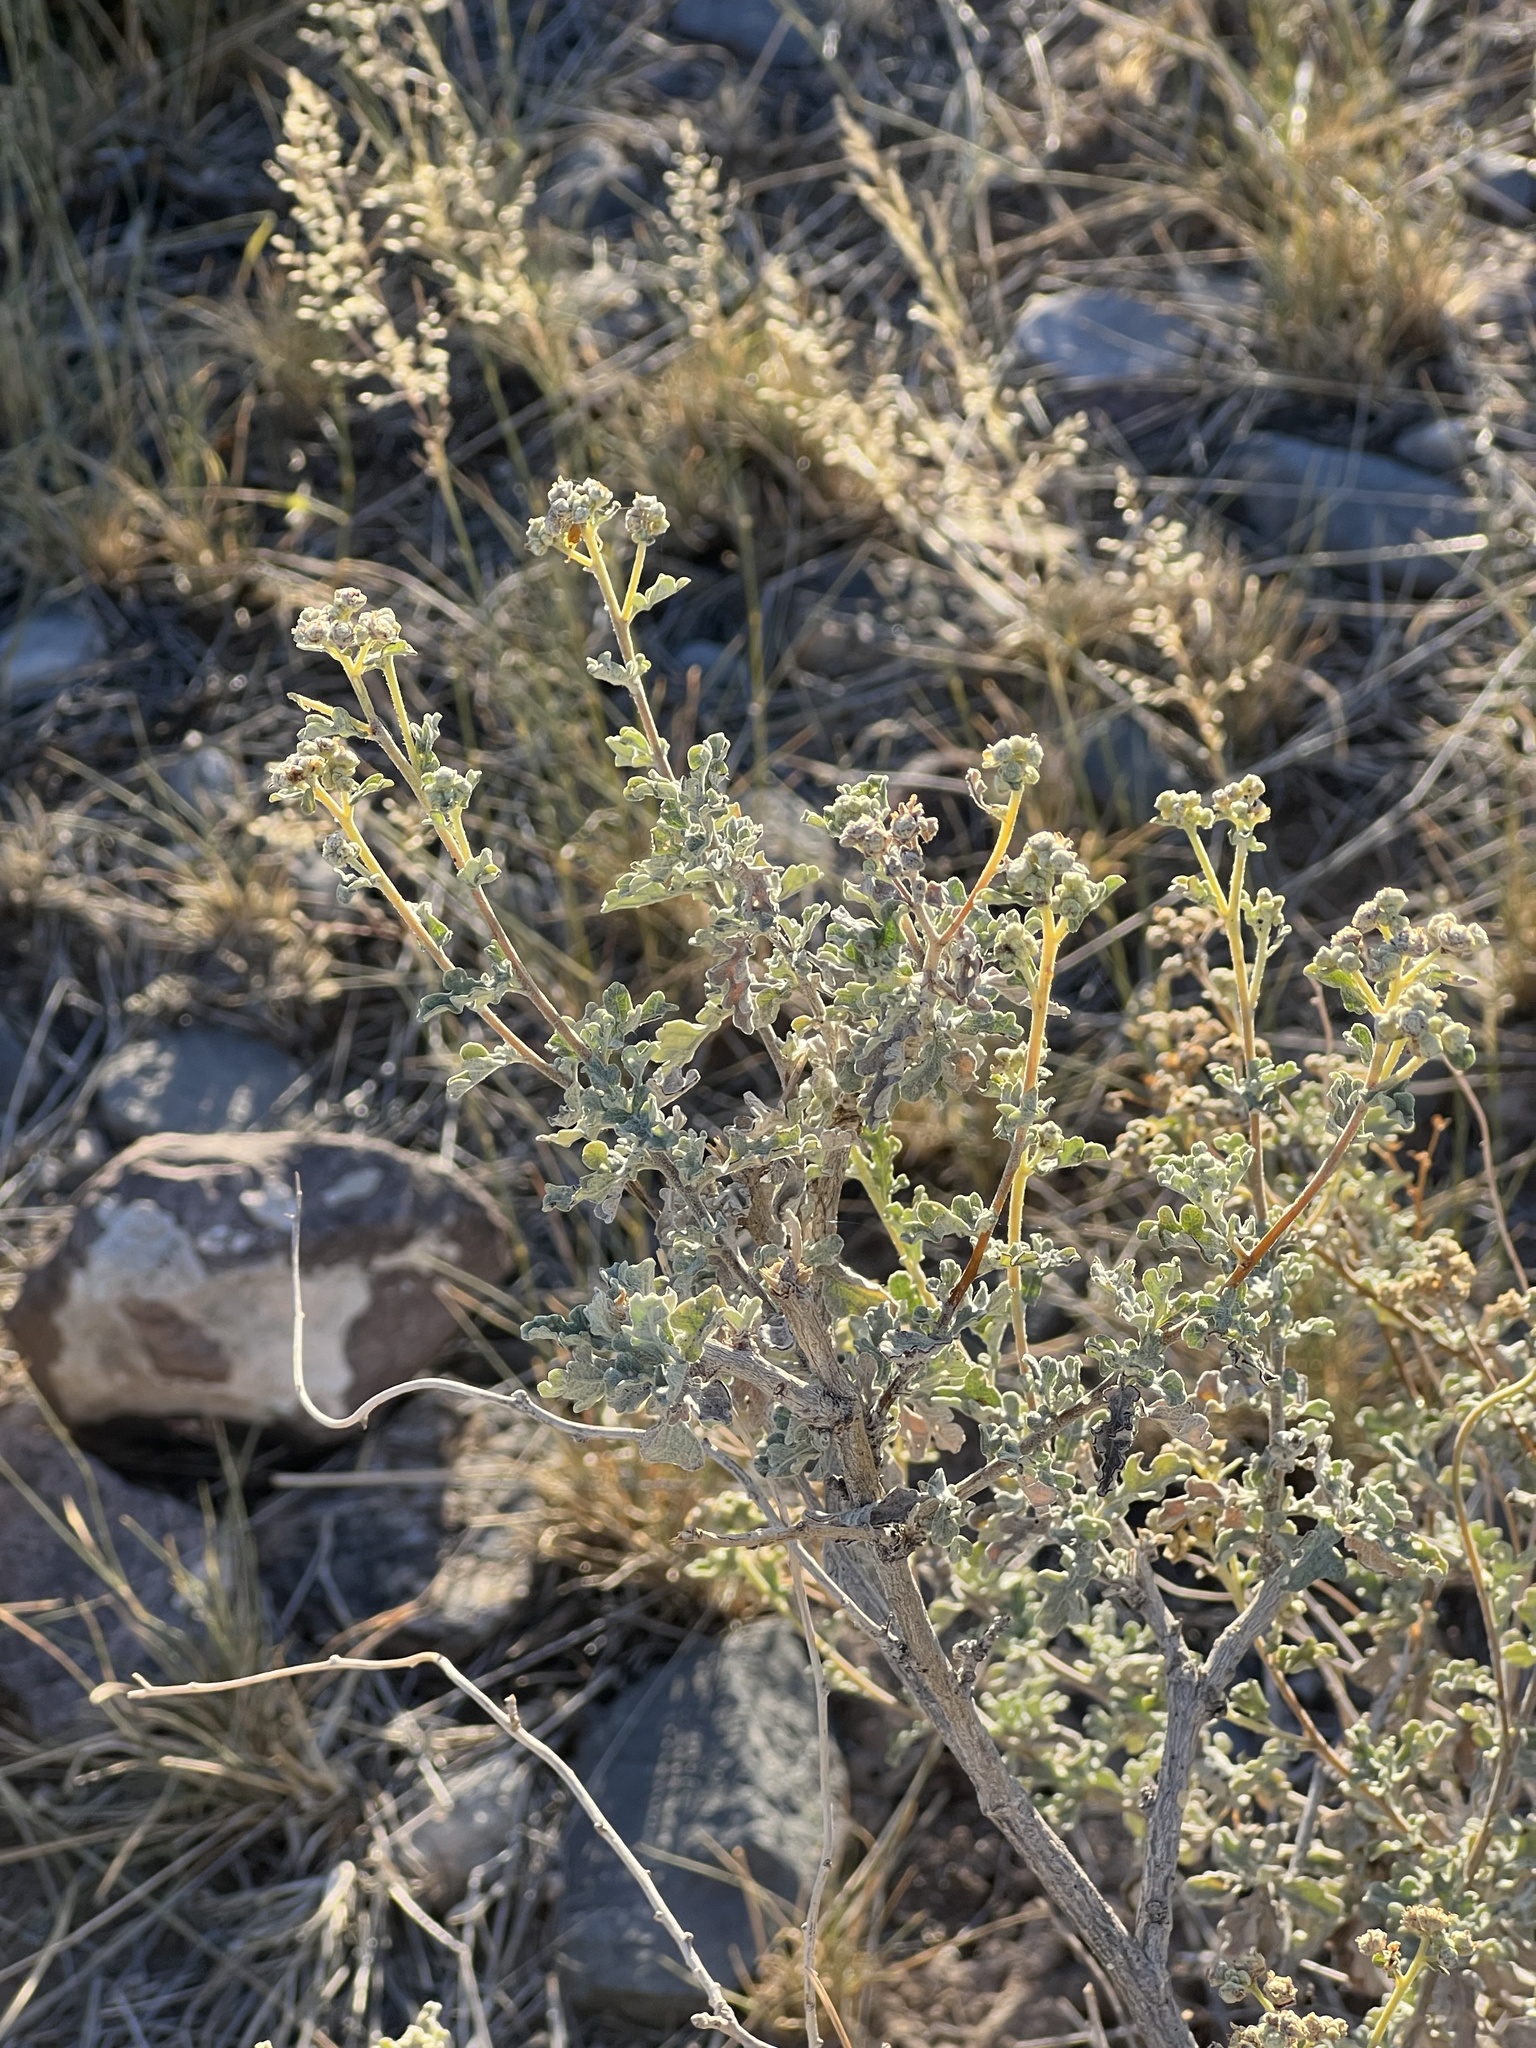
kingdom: Plantae
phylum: Tracheophyta
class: Magnoliopsida
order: Asterales
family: Asteraceae
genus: Parthenium
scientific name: Parthenium incanum
